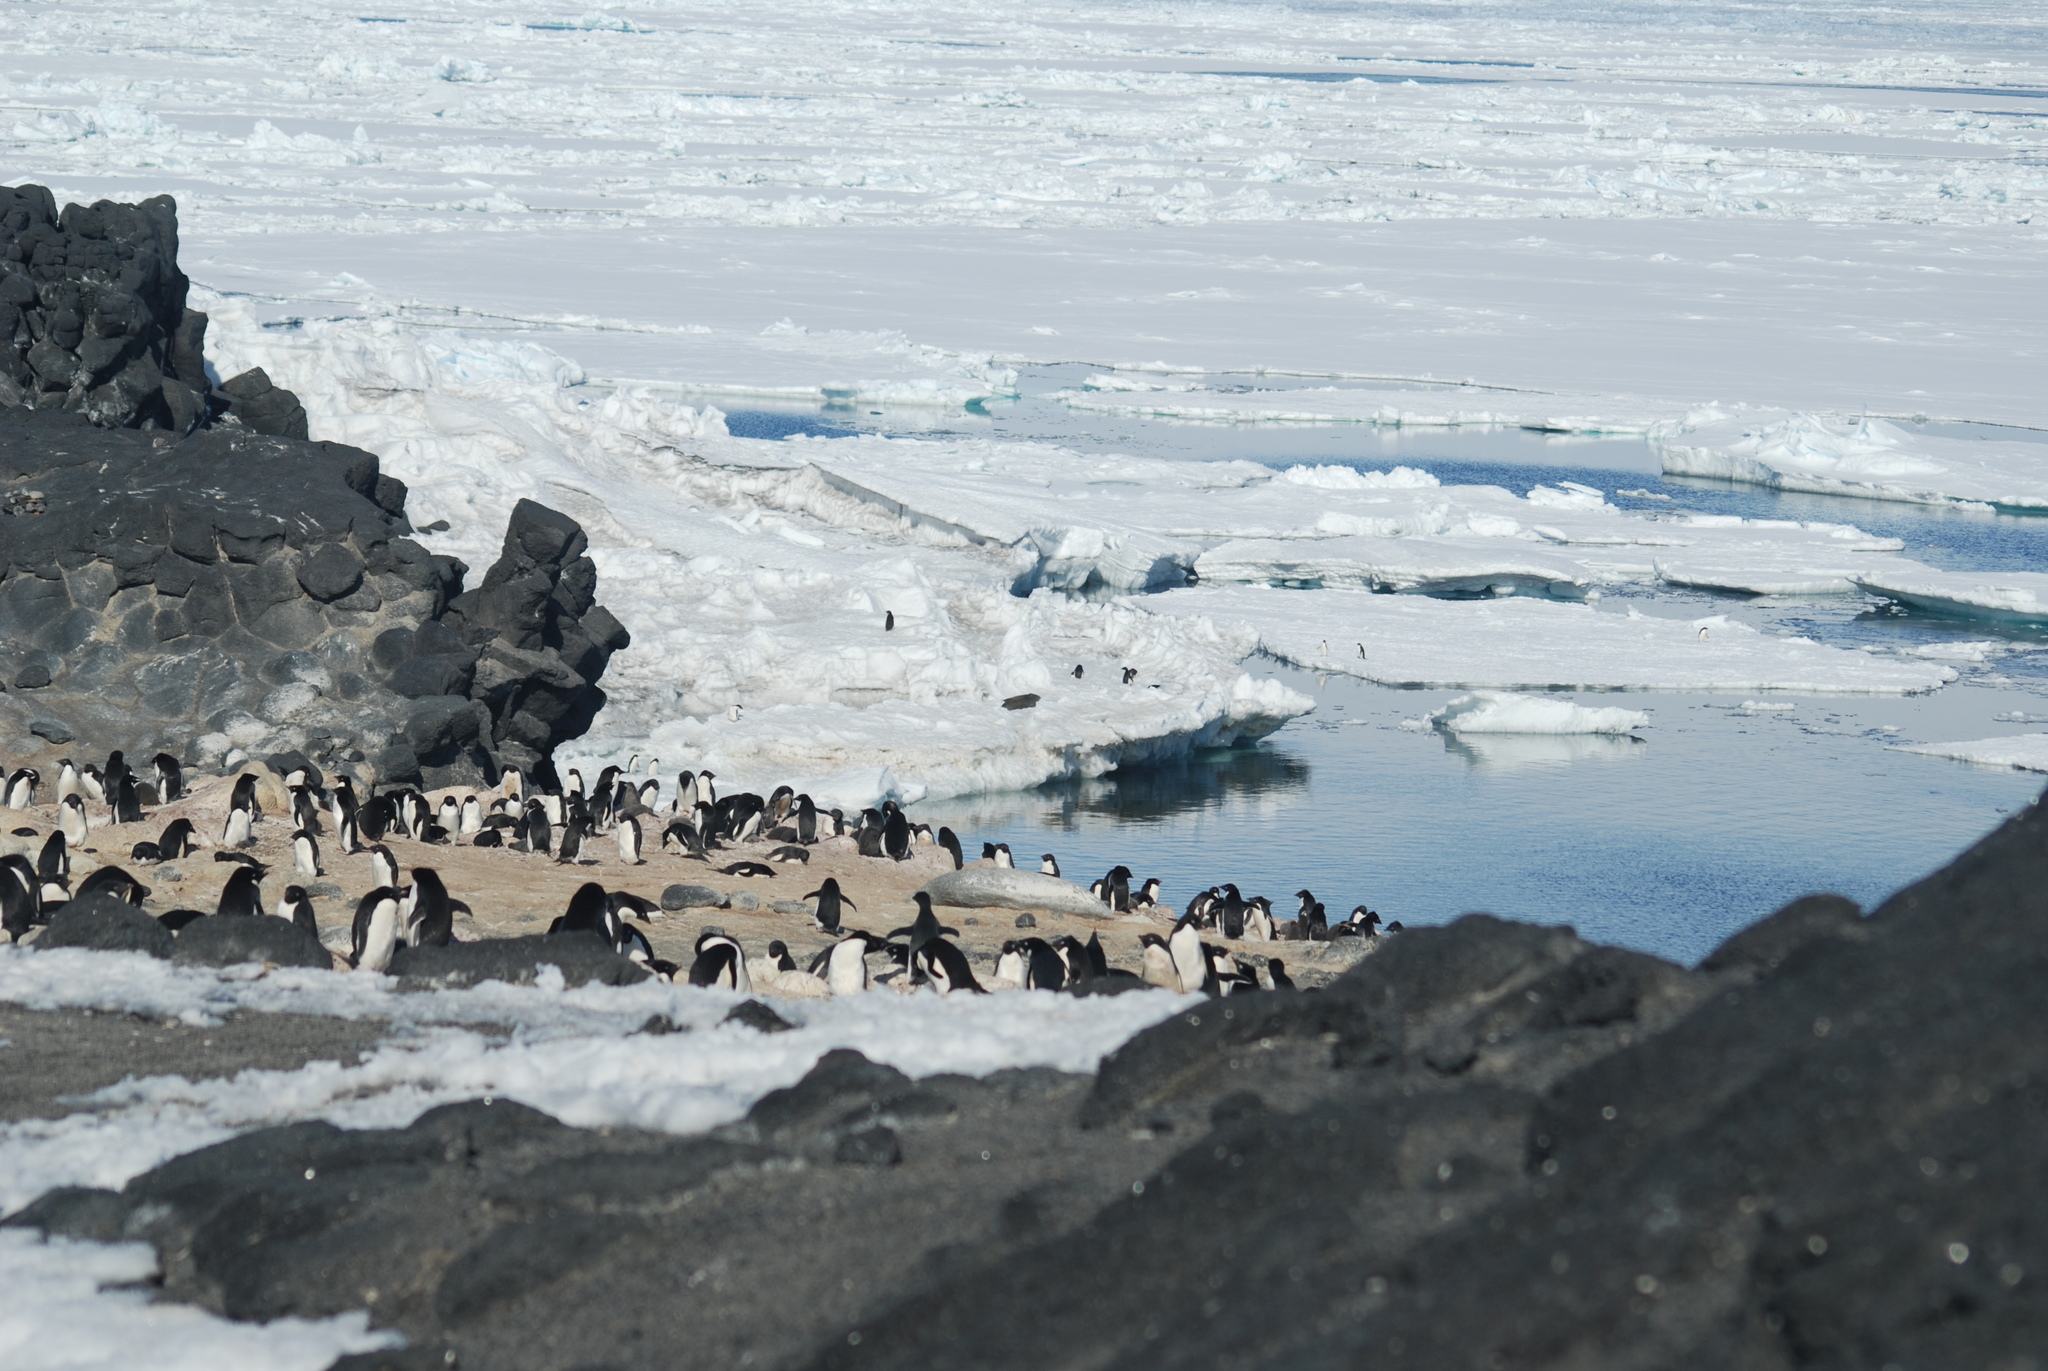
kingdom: Animalia
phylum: Chordata
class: Aves
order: Sphenisciformes
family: Spheniscidae
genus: Pygoscelis
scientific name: Pygoscelis adeliae
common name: Adelie penguin
